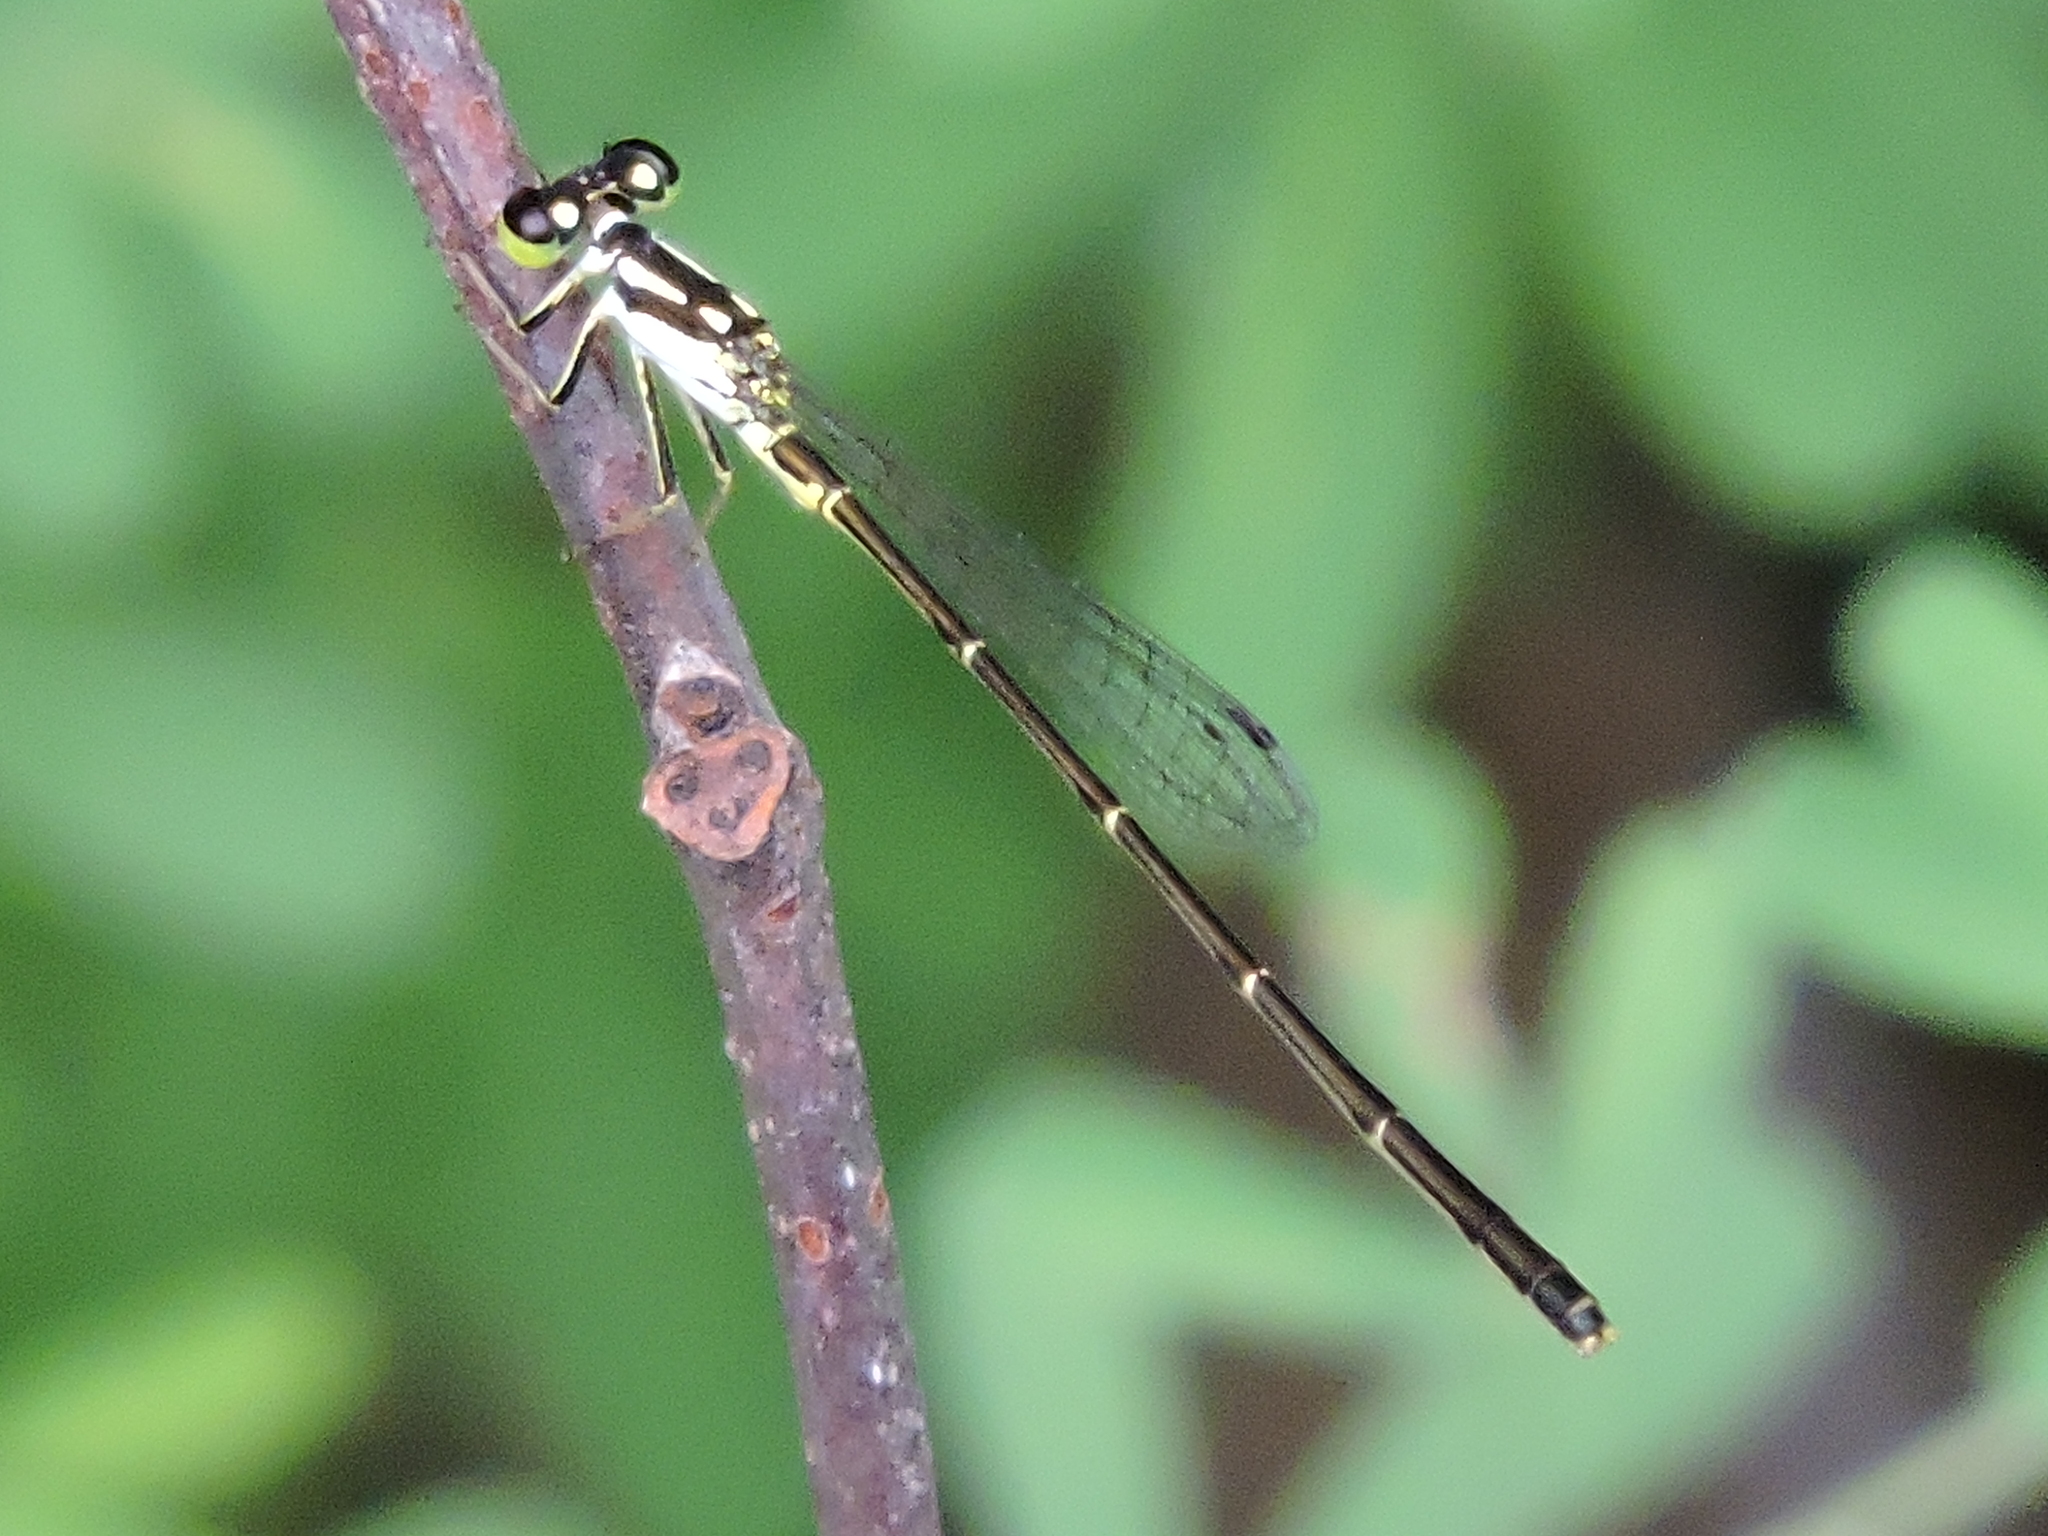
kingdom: Animalia
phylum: Arthropoda
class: Insecta
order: Odonata
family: Coenagrionidae
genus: Ischnura
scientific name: Ischnura posita
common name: Fragile forktail
